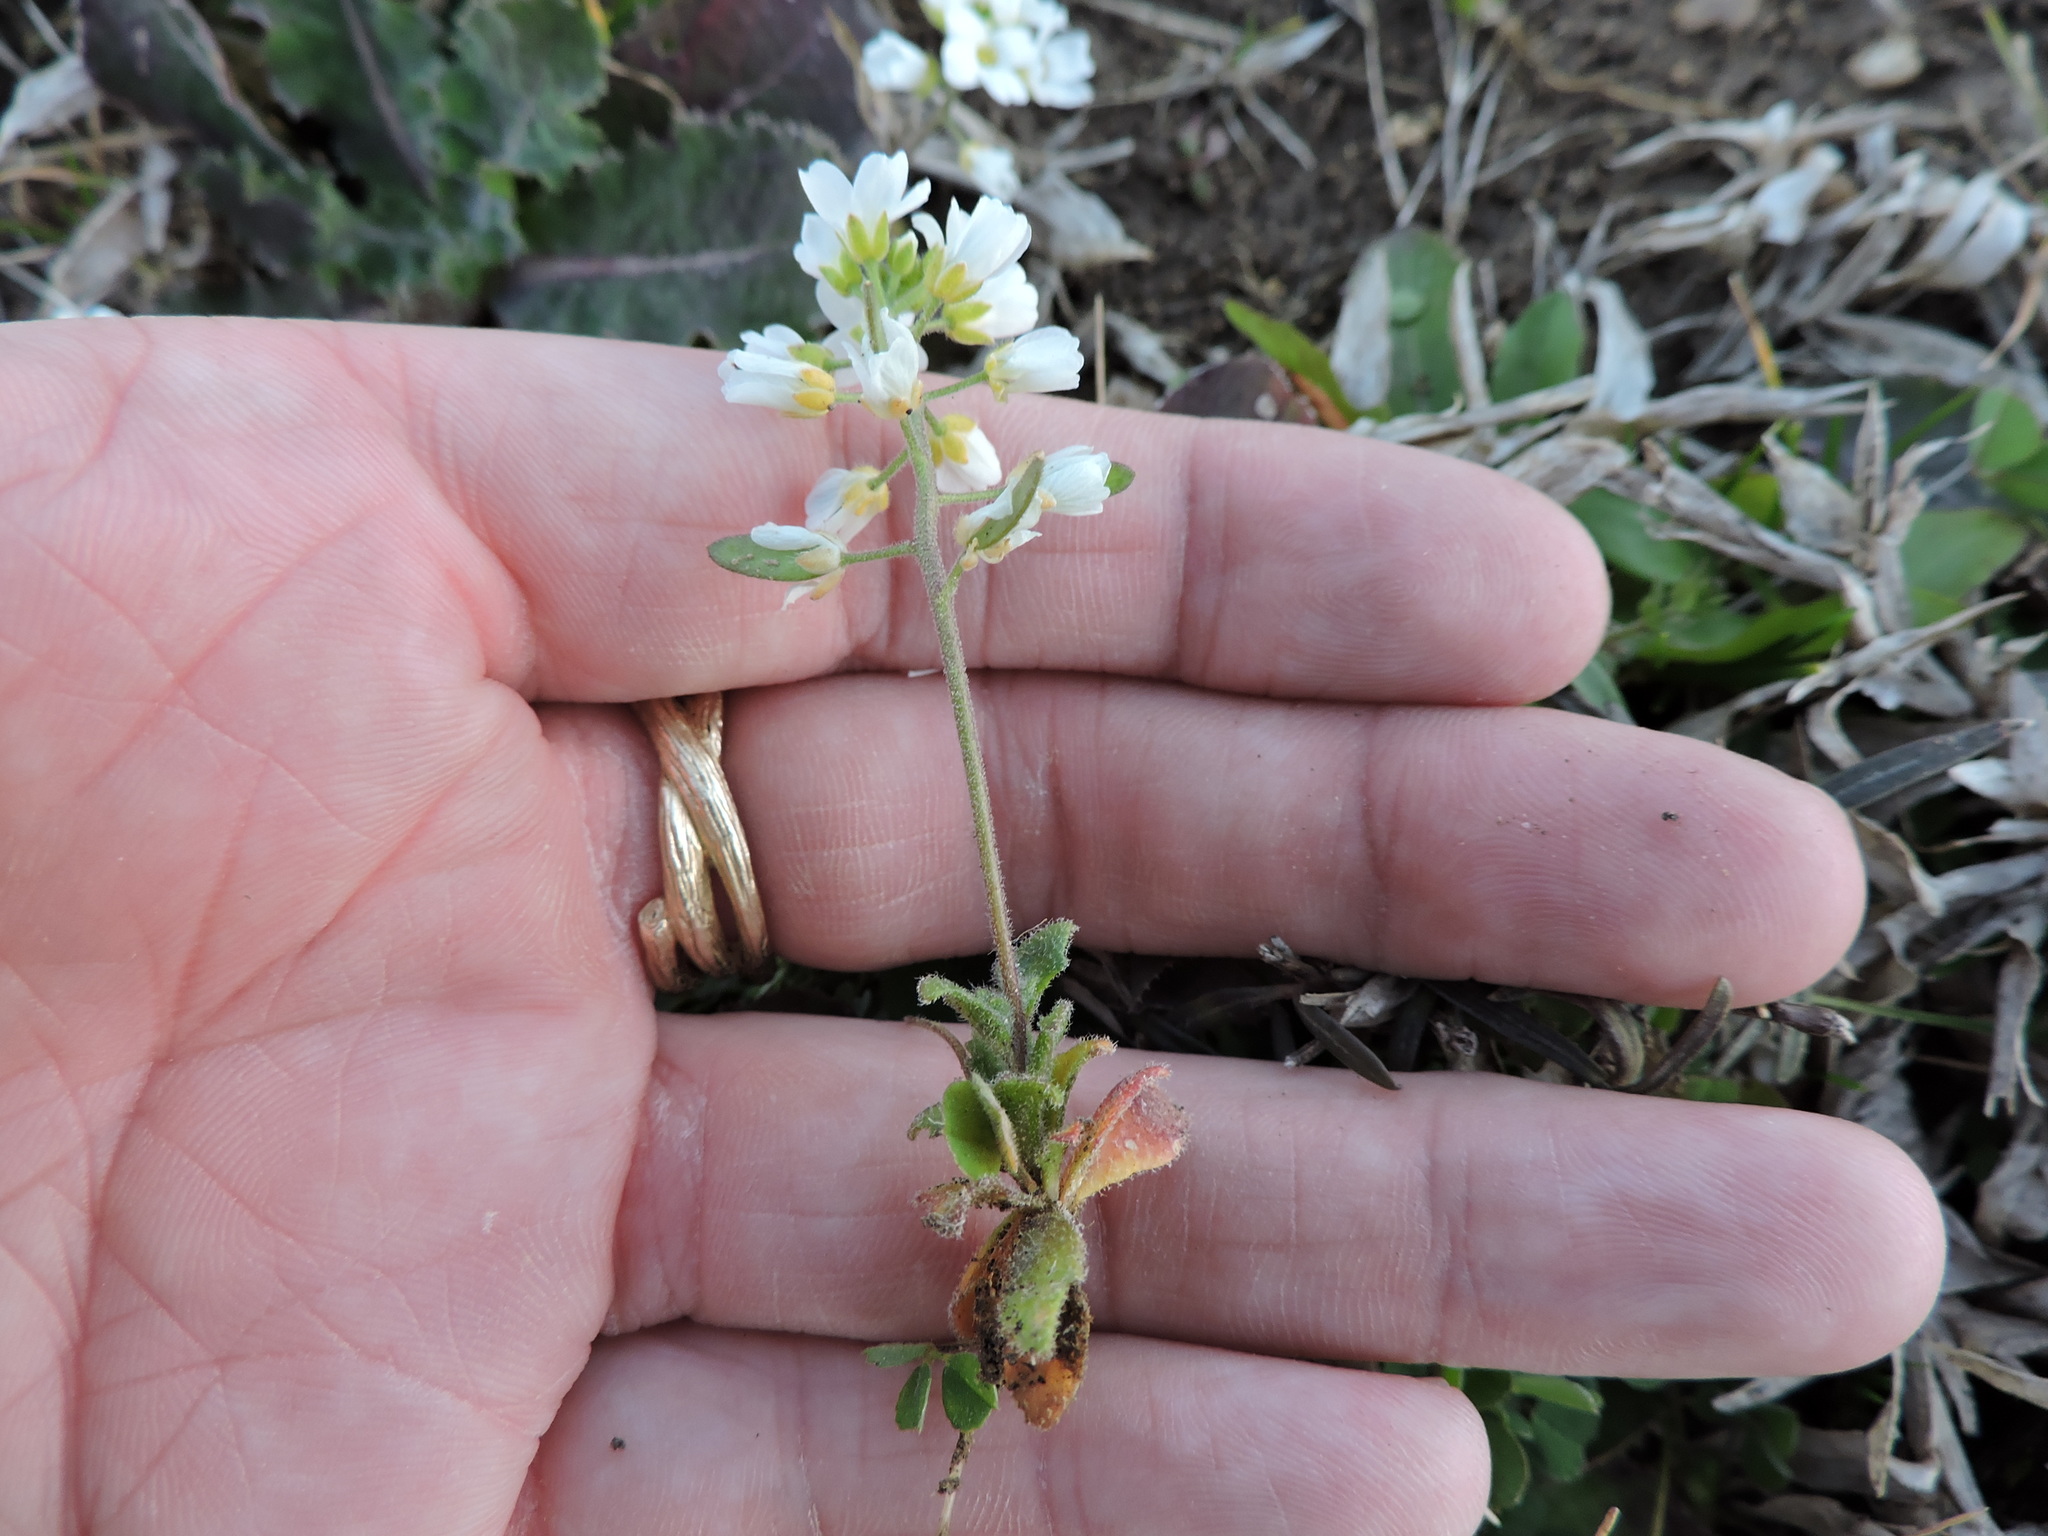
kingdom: Plantae
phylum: Tracheophyta
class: Magnoliopsida
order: Brassicales
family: Brassicaceae
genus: Tomostima
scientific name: Tomostima cuneifolia
